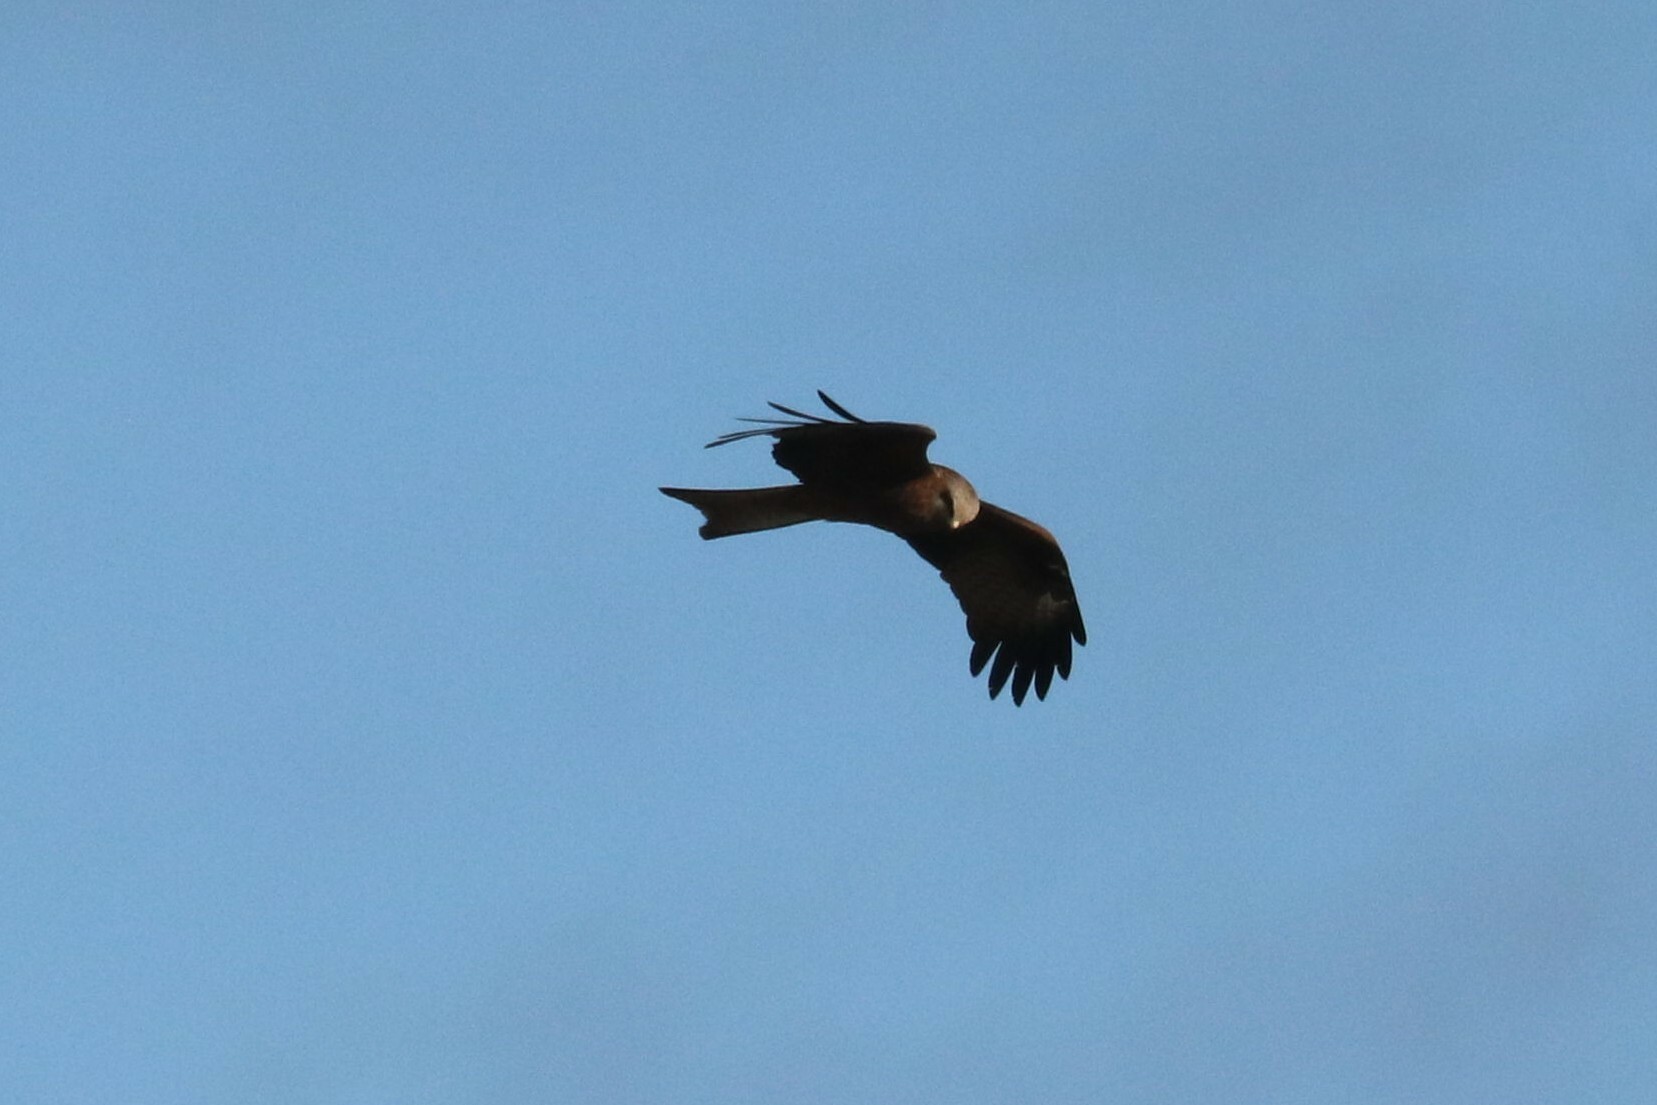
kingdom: Animalia
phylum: Chordata
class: Aves
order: Accipitriformes
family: Accipitridae
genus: Milvus
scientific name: Milvus migrans
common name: Black kite
